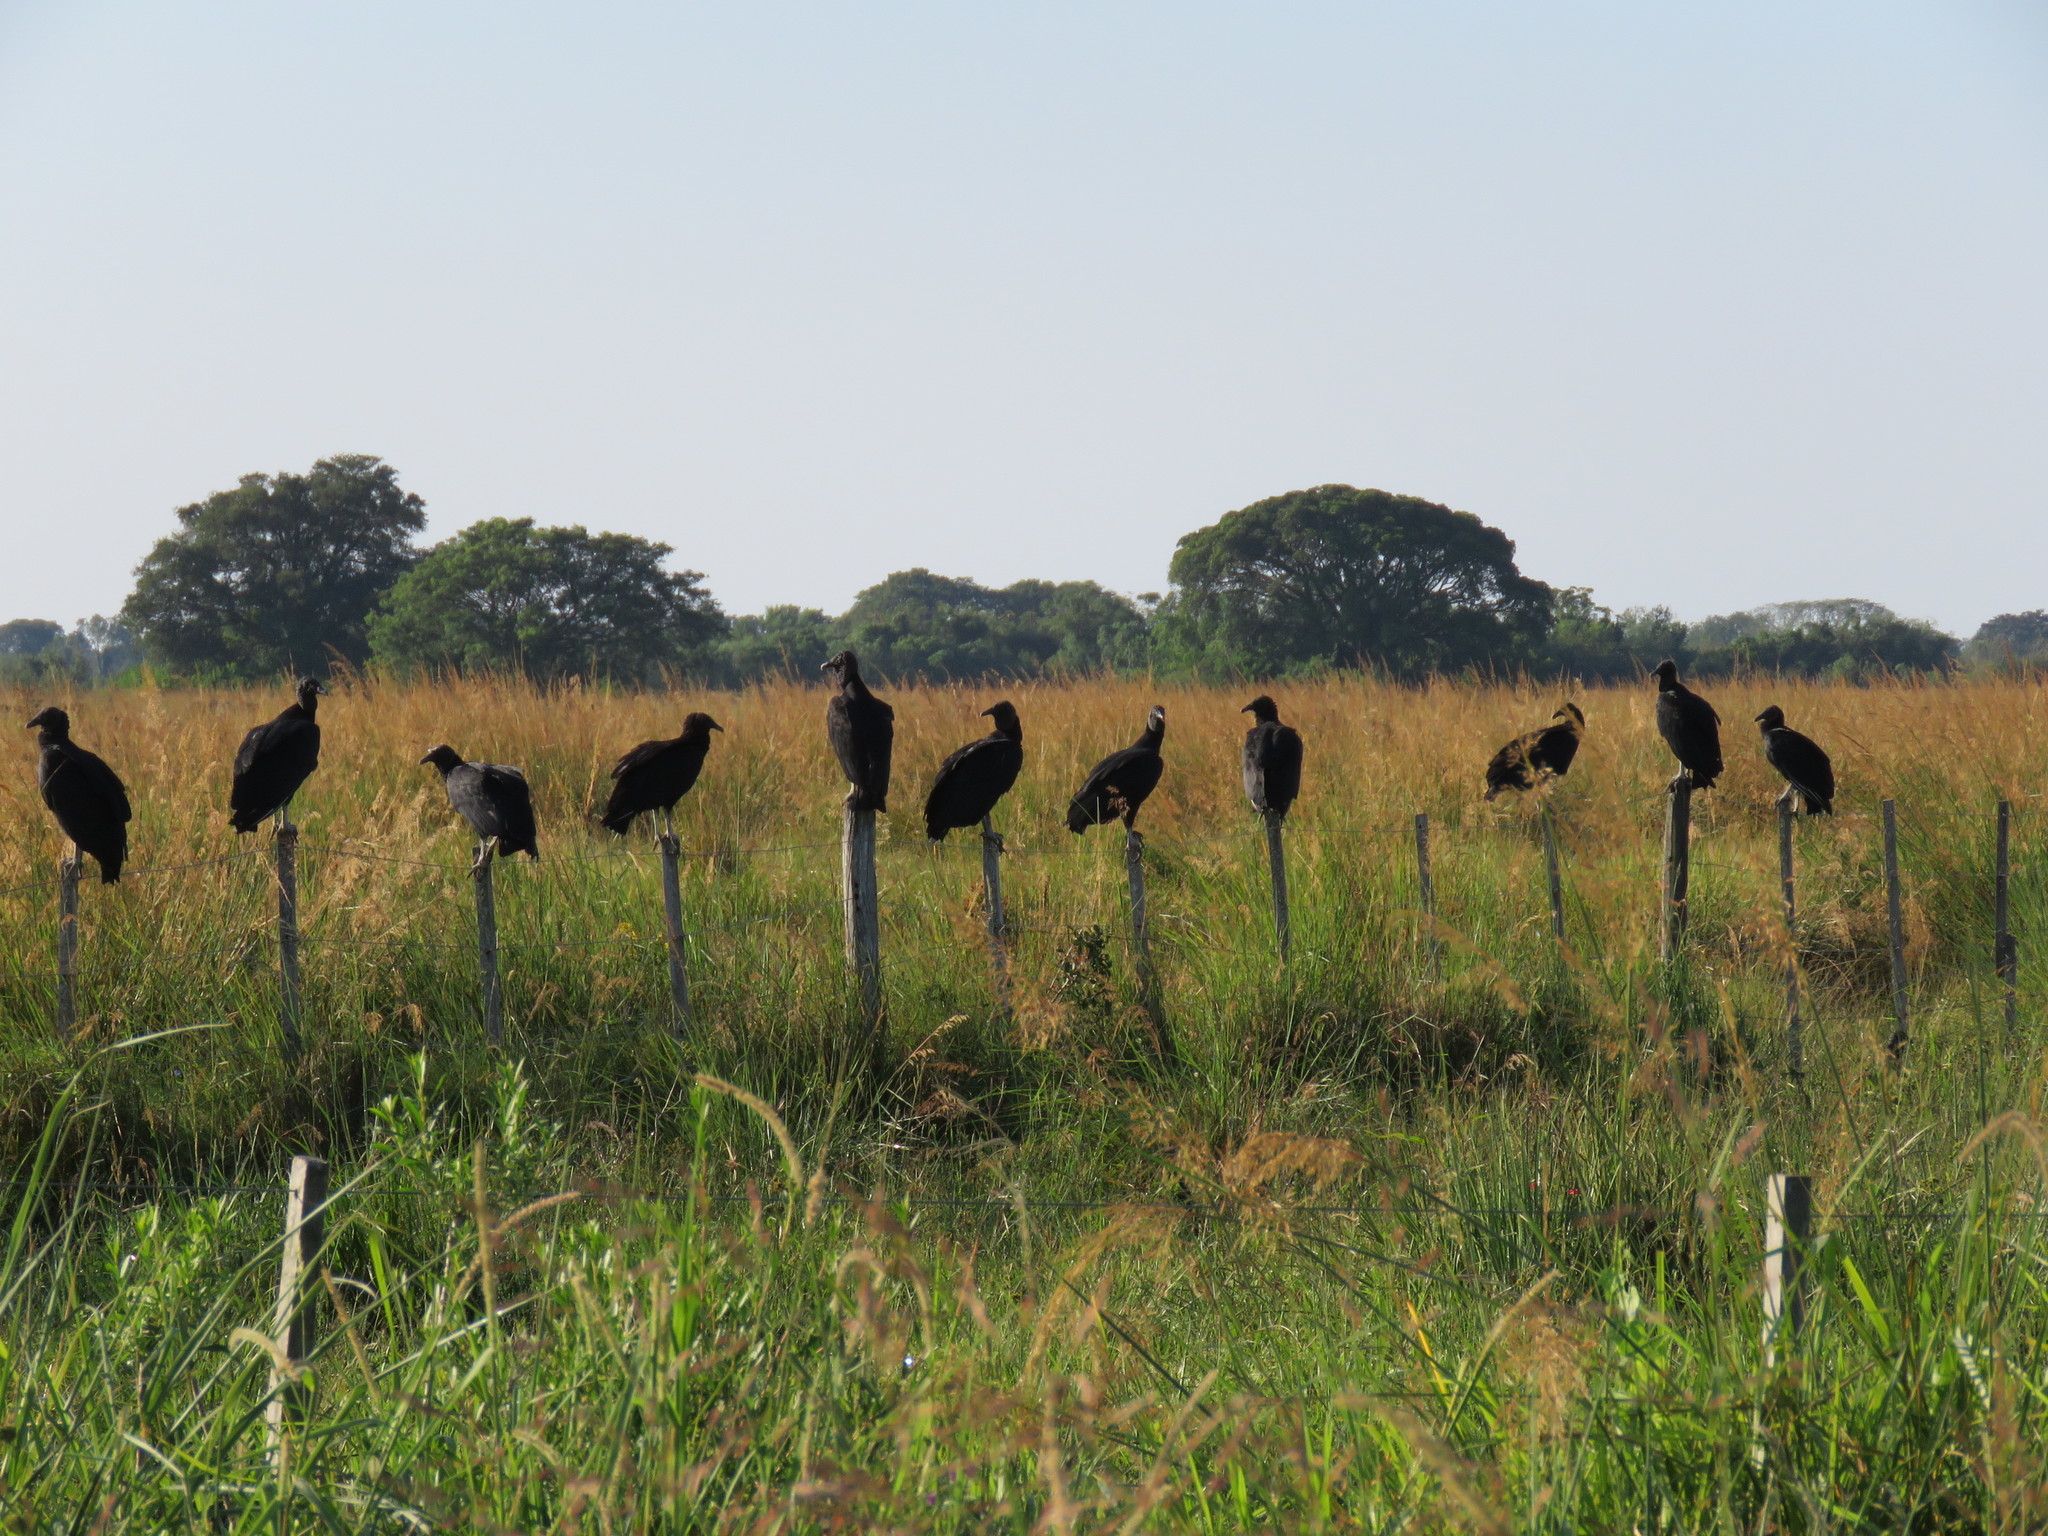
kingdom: Animalia
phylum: Chordata
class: Aves
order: Accipitriformes
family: Cathartidae
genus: Coragyps
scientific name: Coragyps atratus
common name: Black vulture
